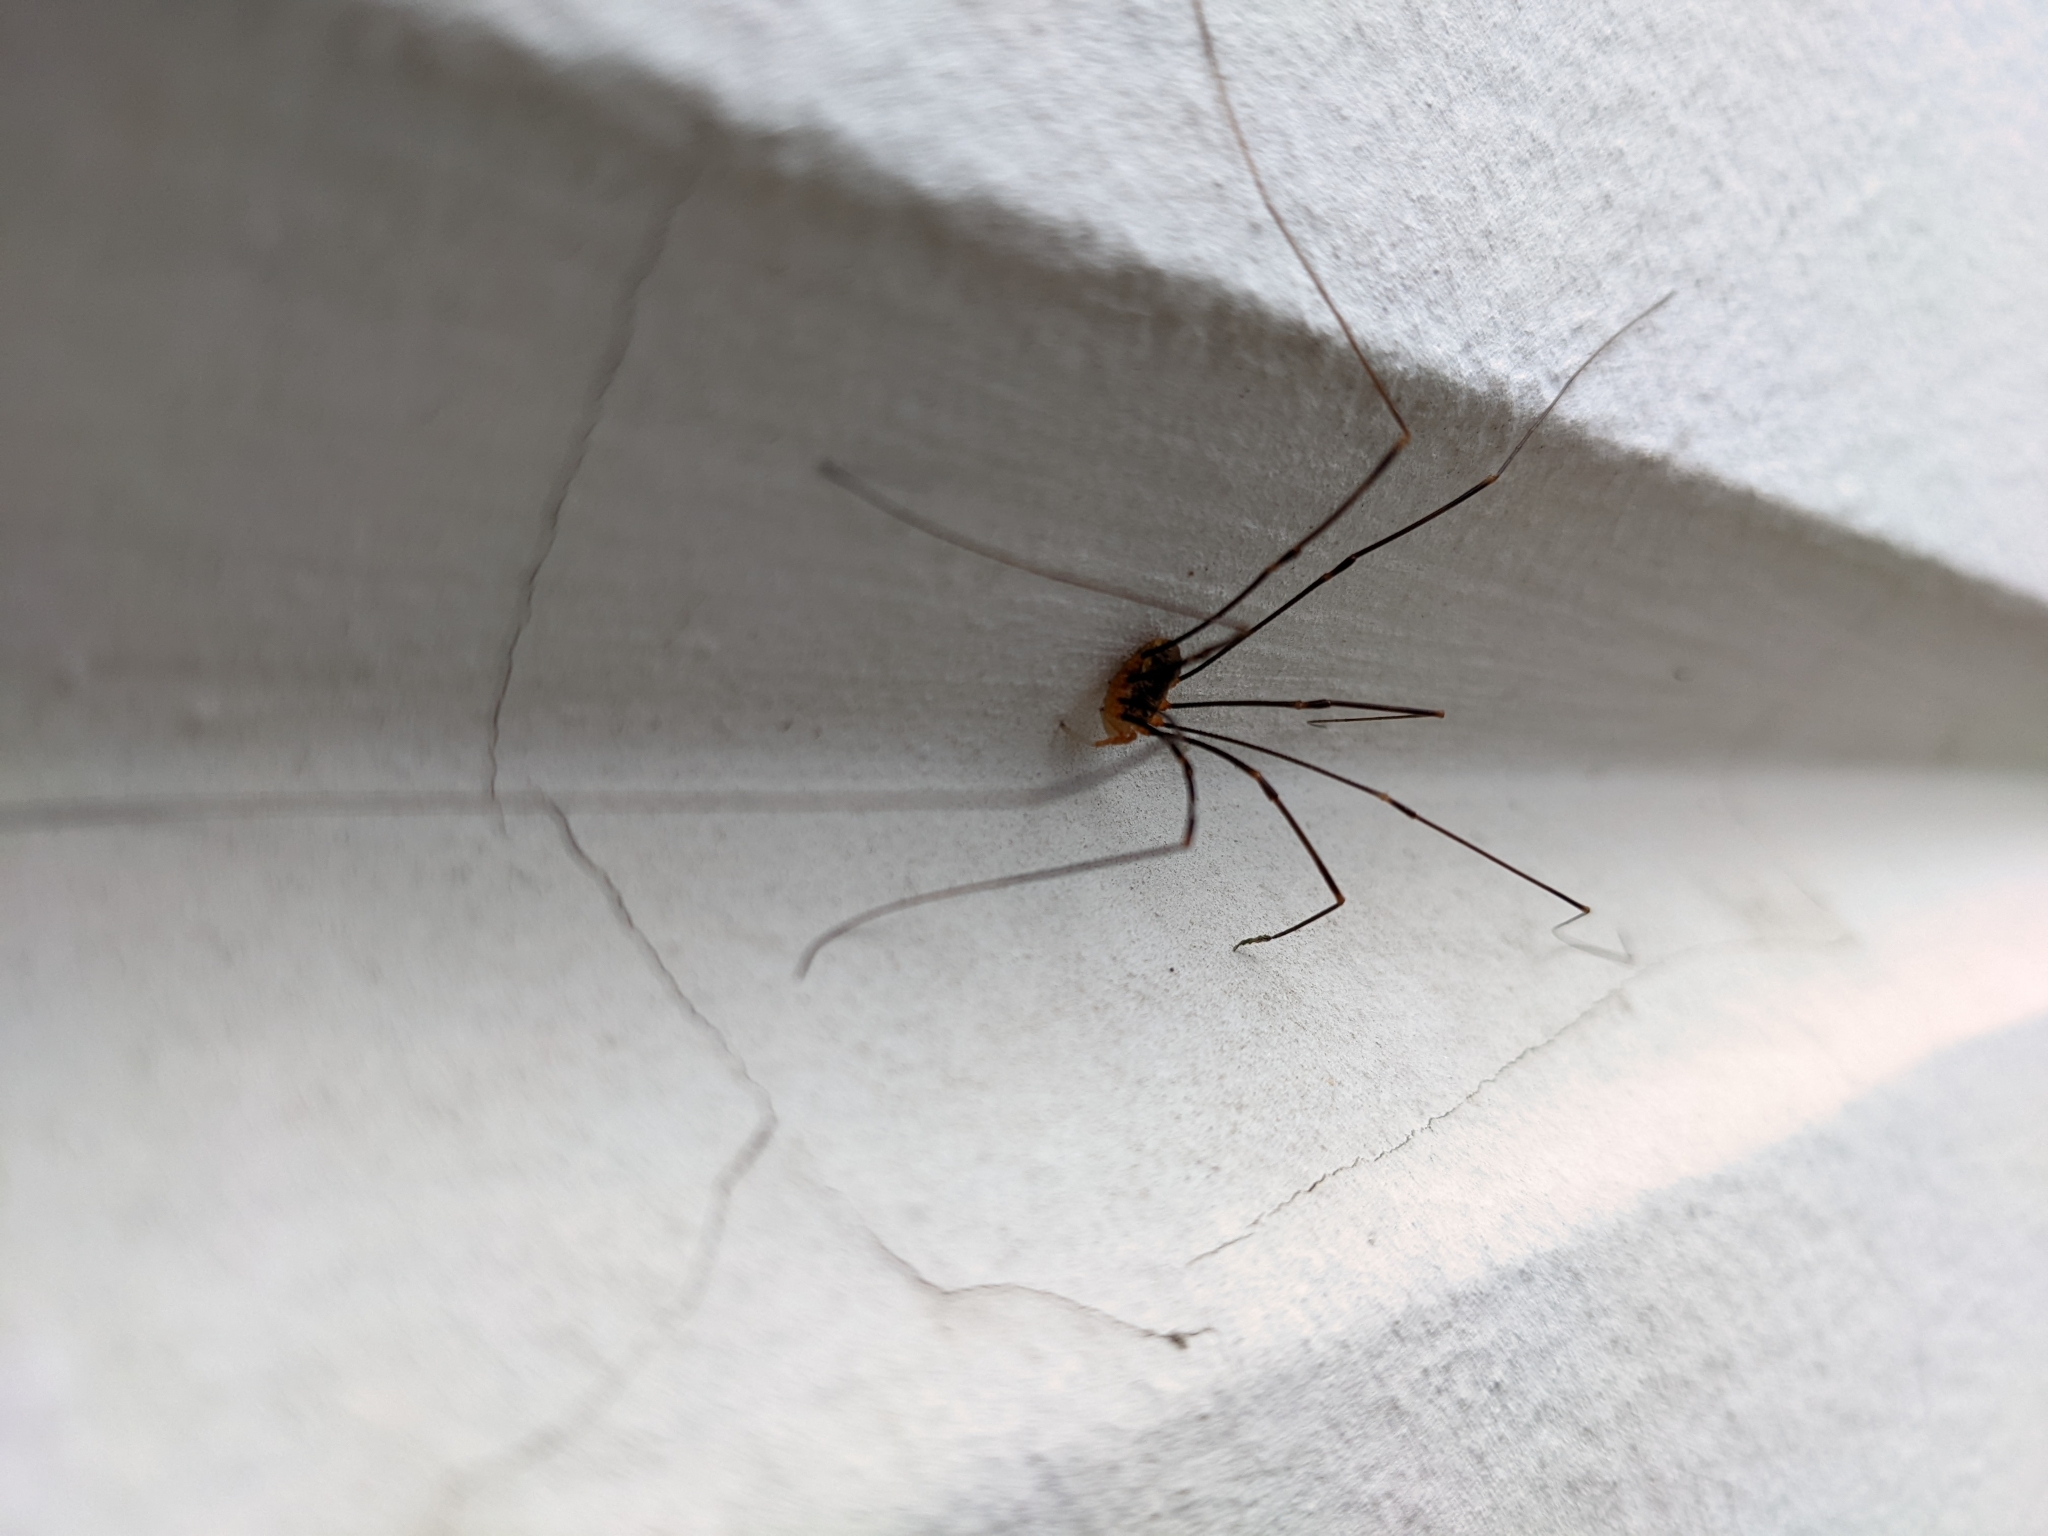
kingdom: Animalia
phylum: Arthropoda
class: Arachnida
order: Opiliones
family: Phalangiidae
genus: Opilio
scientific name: Opilio canestrinii
